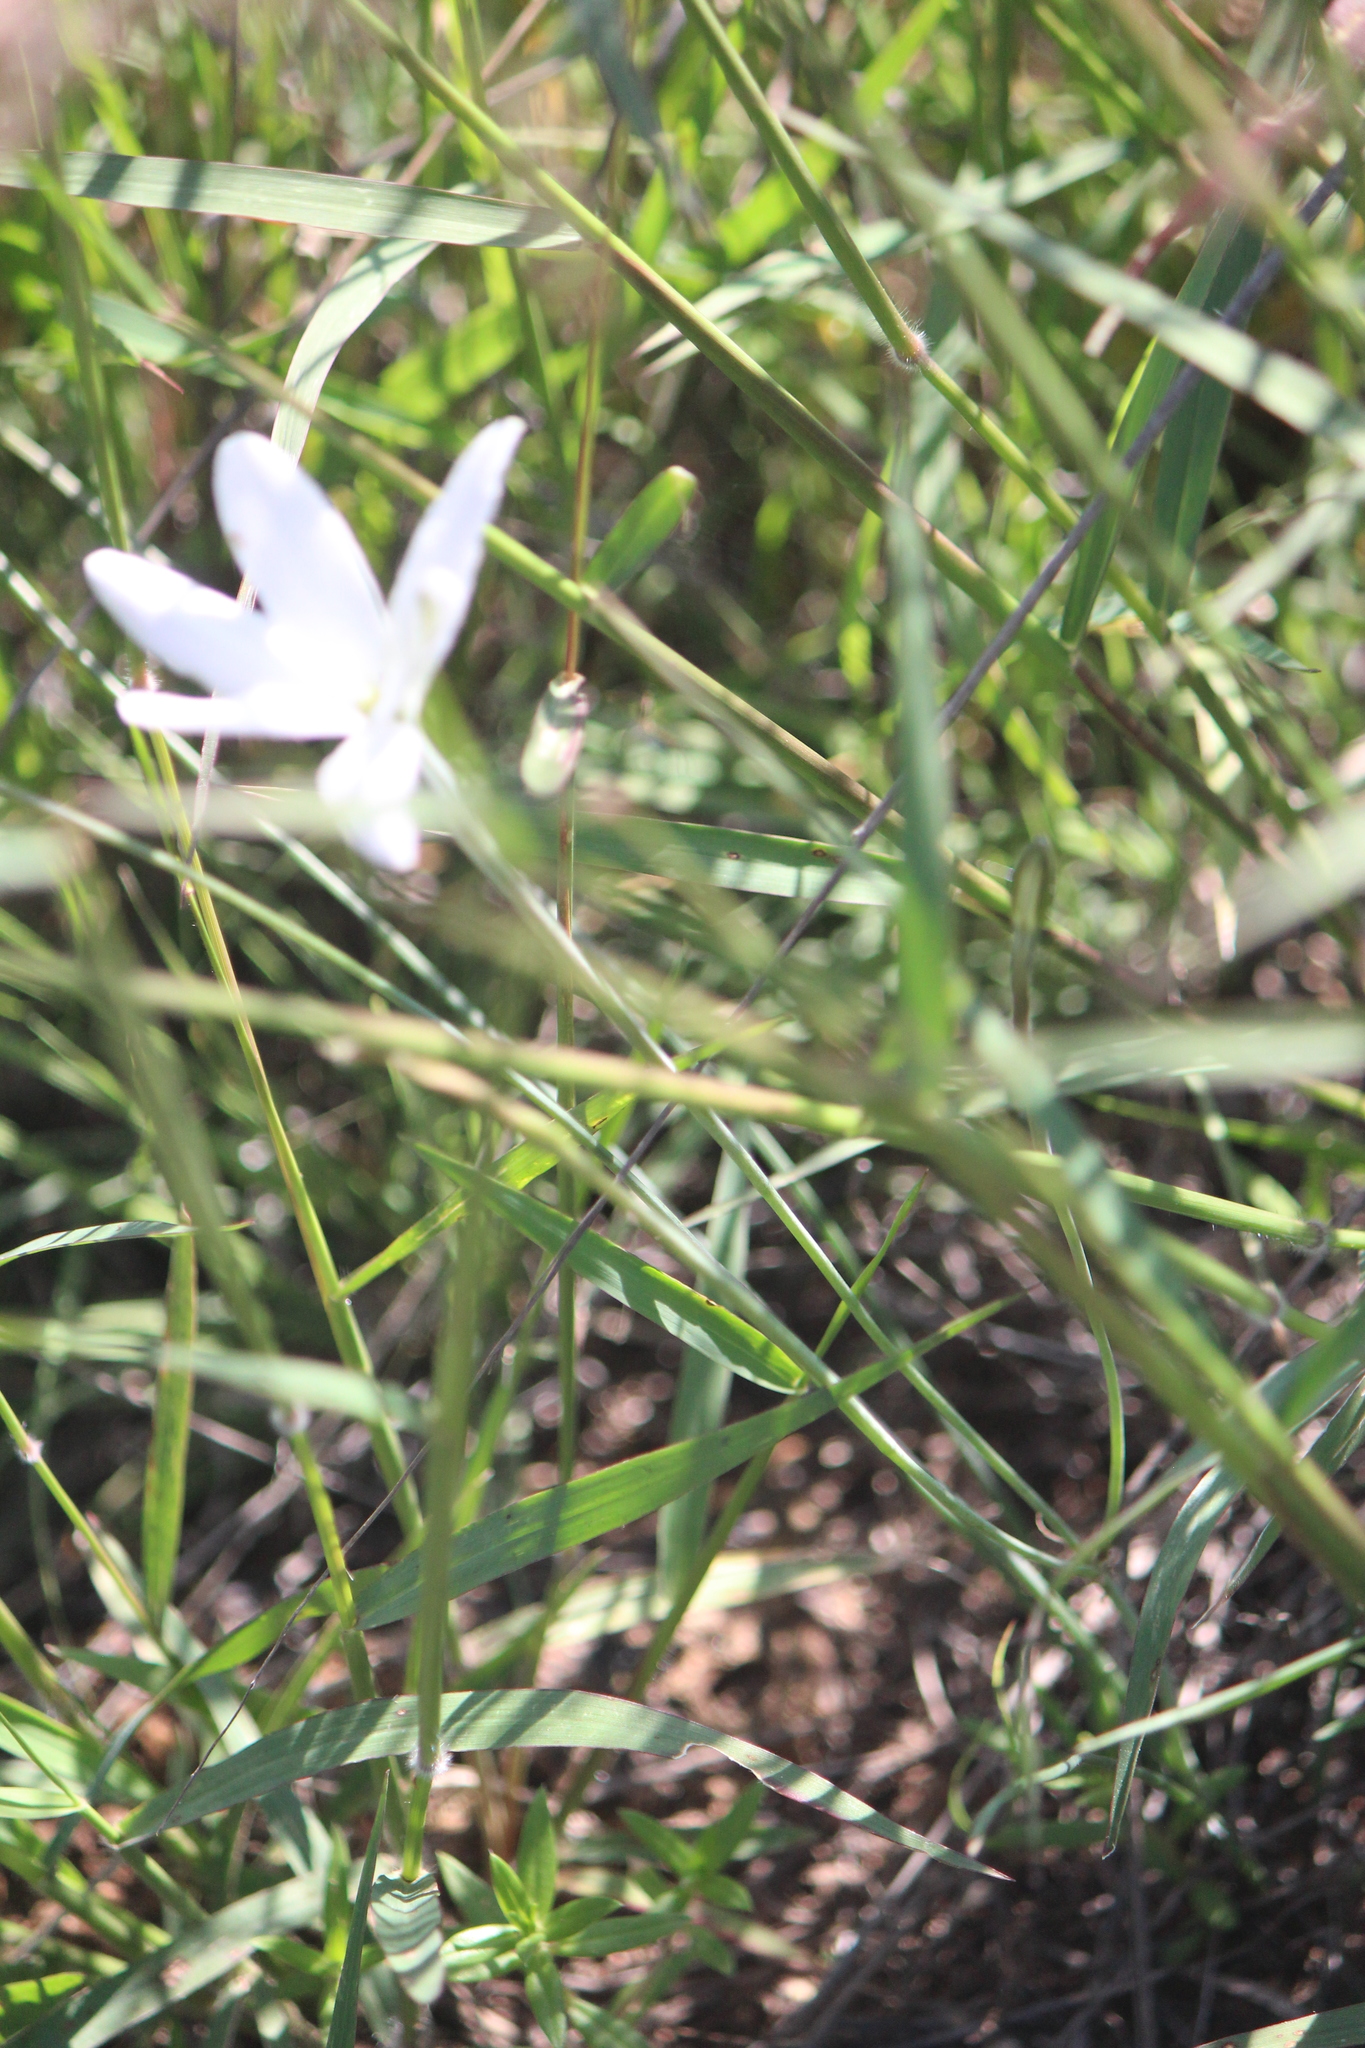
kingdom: Plantae
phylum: Tracheophyta
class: Liliopsida
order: Asparagales
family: Asparagaceae
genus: Milla
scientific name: Milla biflora
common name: Mexican-star
